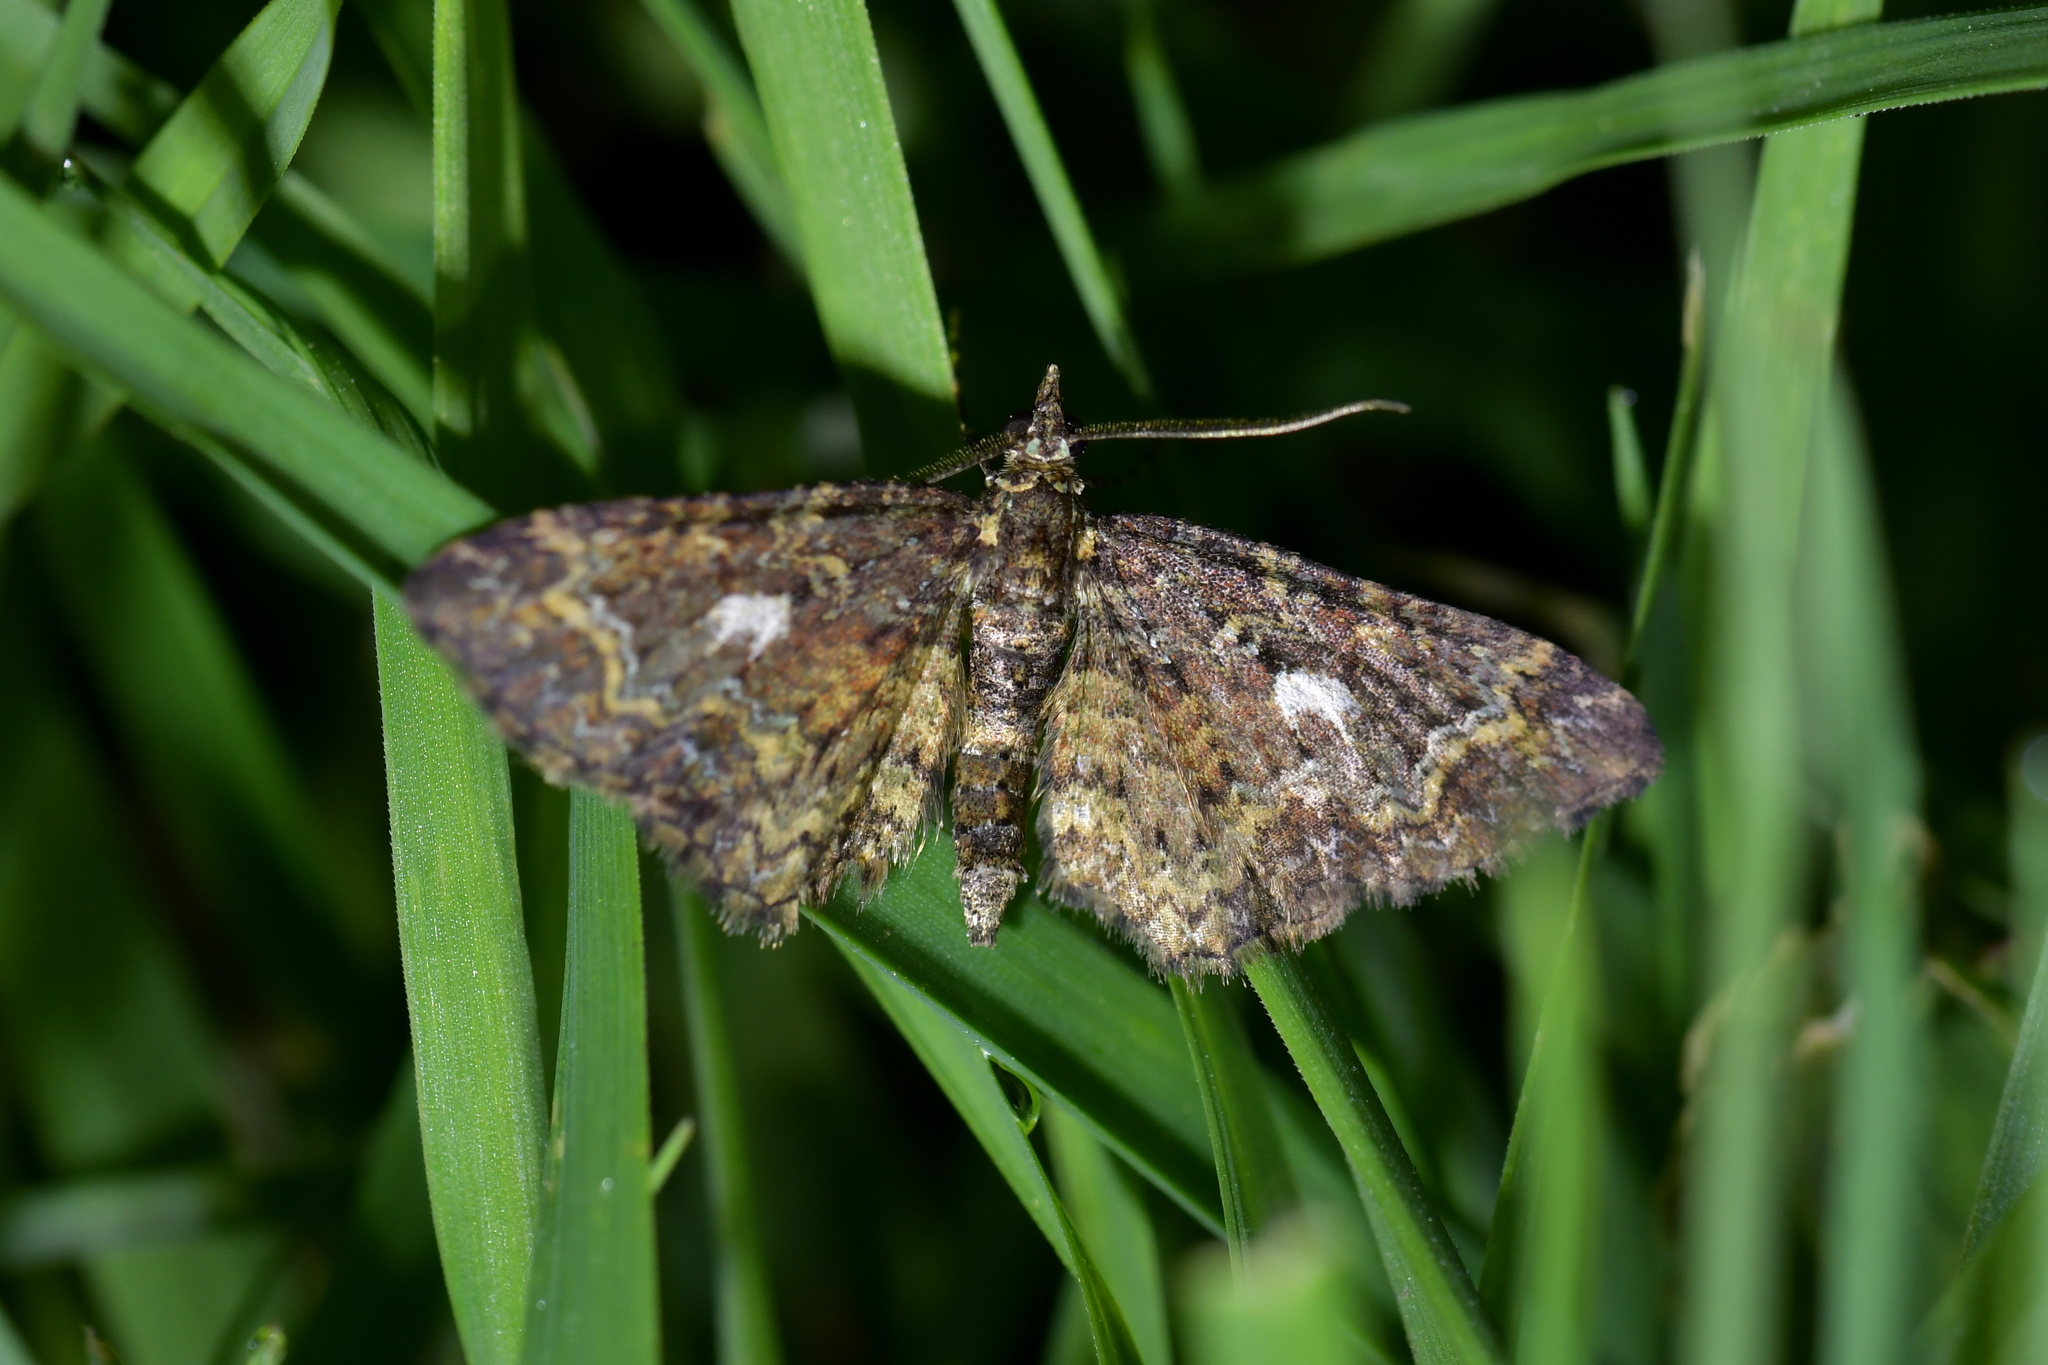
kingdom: Animalia
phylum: Arthropoda
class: Insecta
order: Lepidoptera
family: Geometridae
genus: Pasiphila
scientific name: Pasiphila lunata
